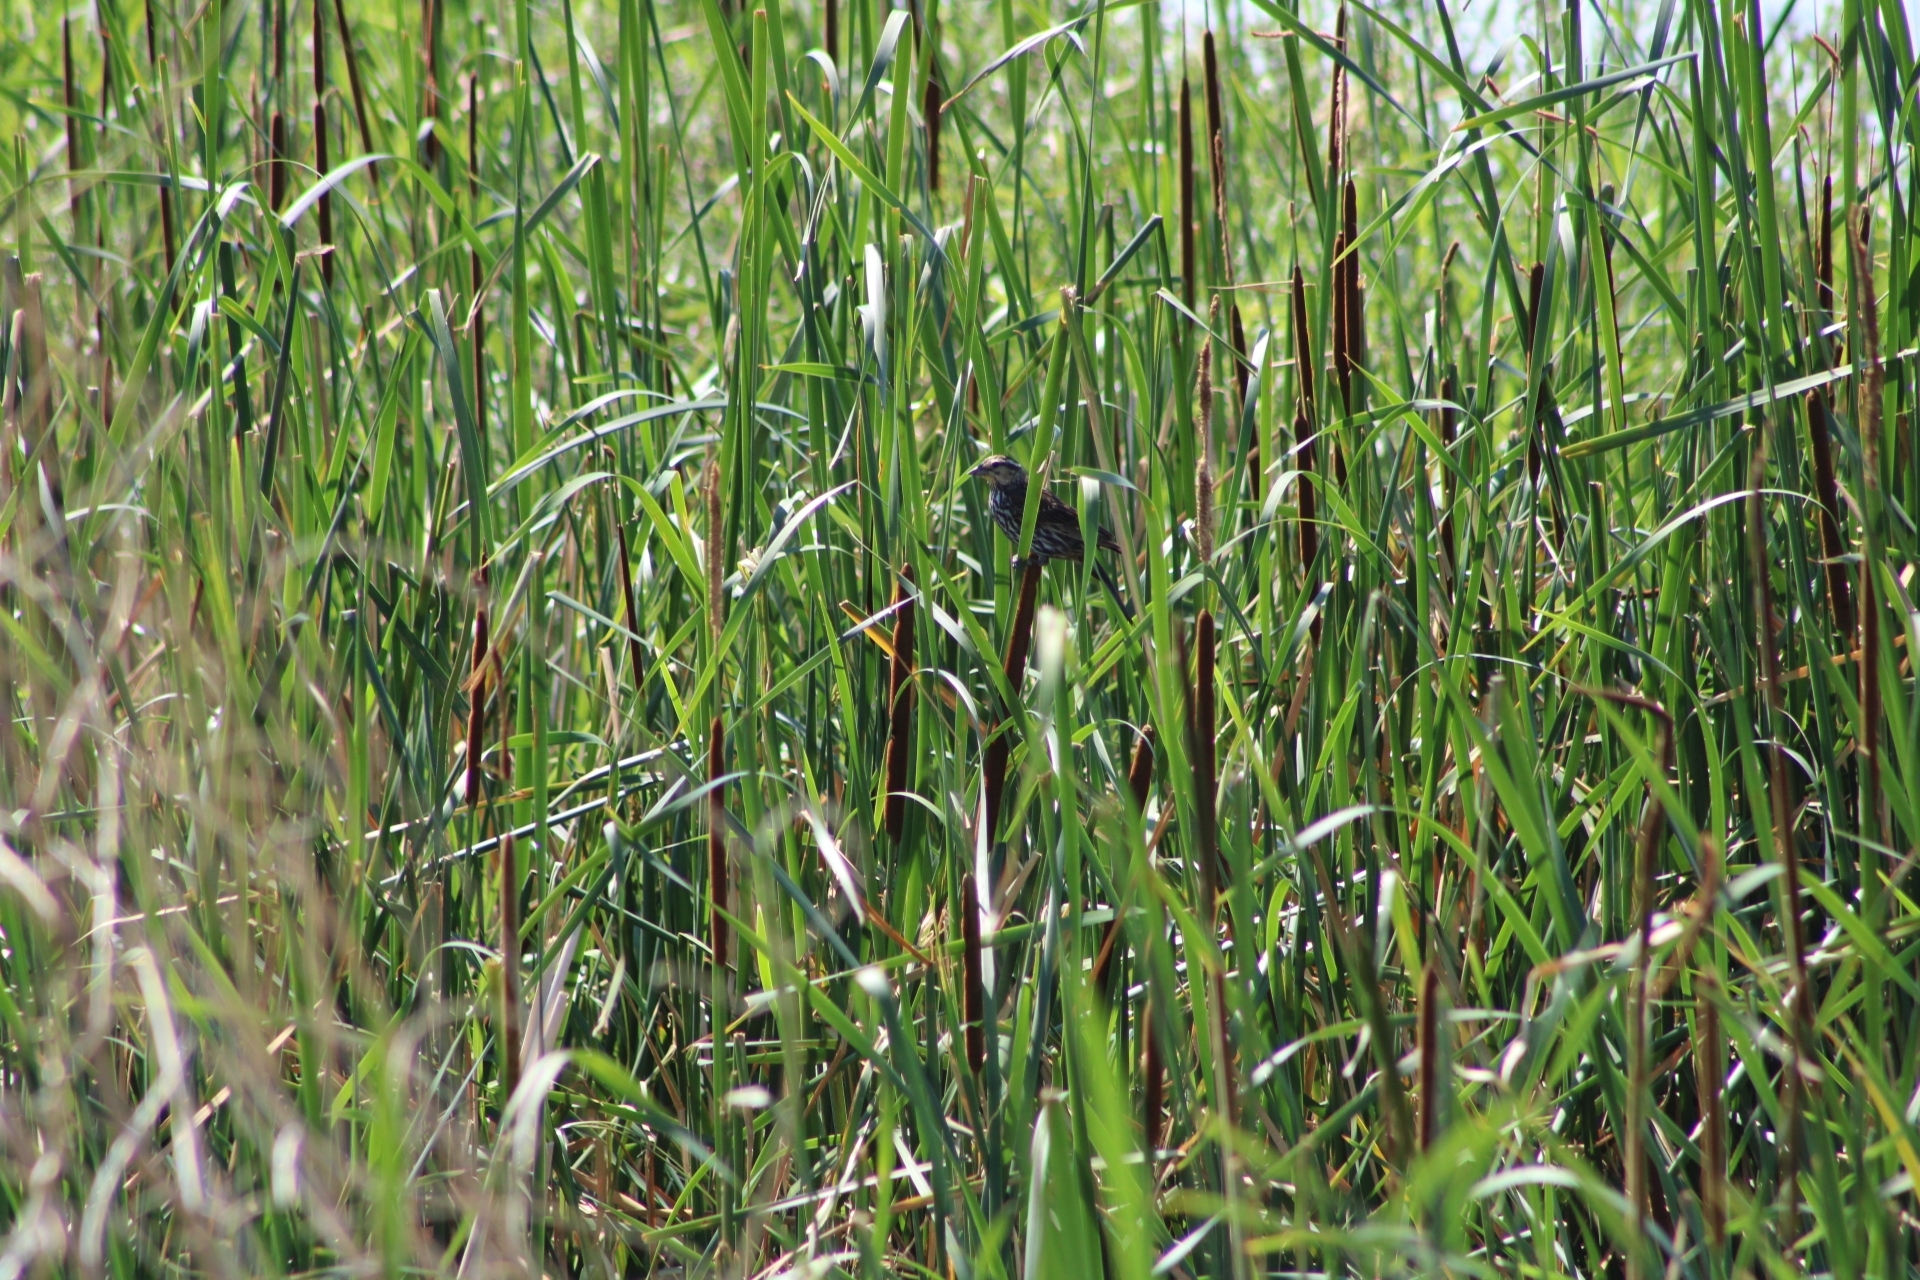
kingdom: Animalia
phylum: Chordata
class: Aves
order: Passeriformes
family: Icteridae
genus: Agelaius
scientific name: Agelaius phoeniceus
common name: Red-winged blackbird
